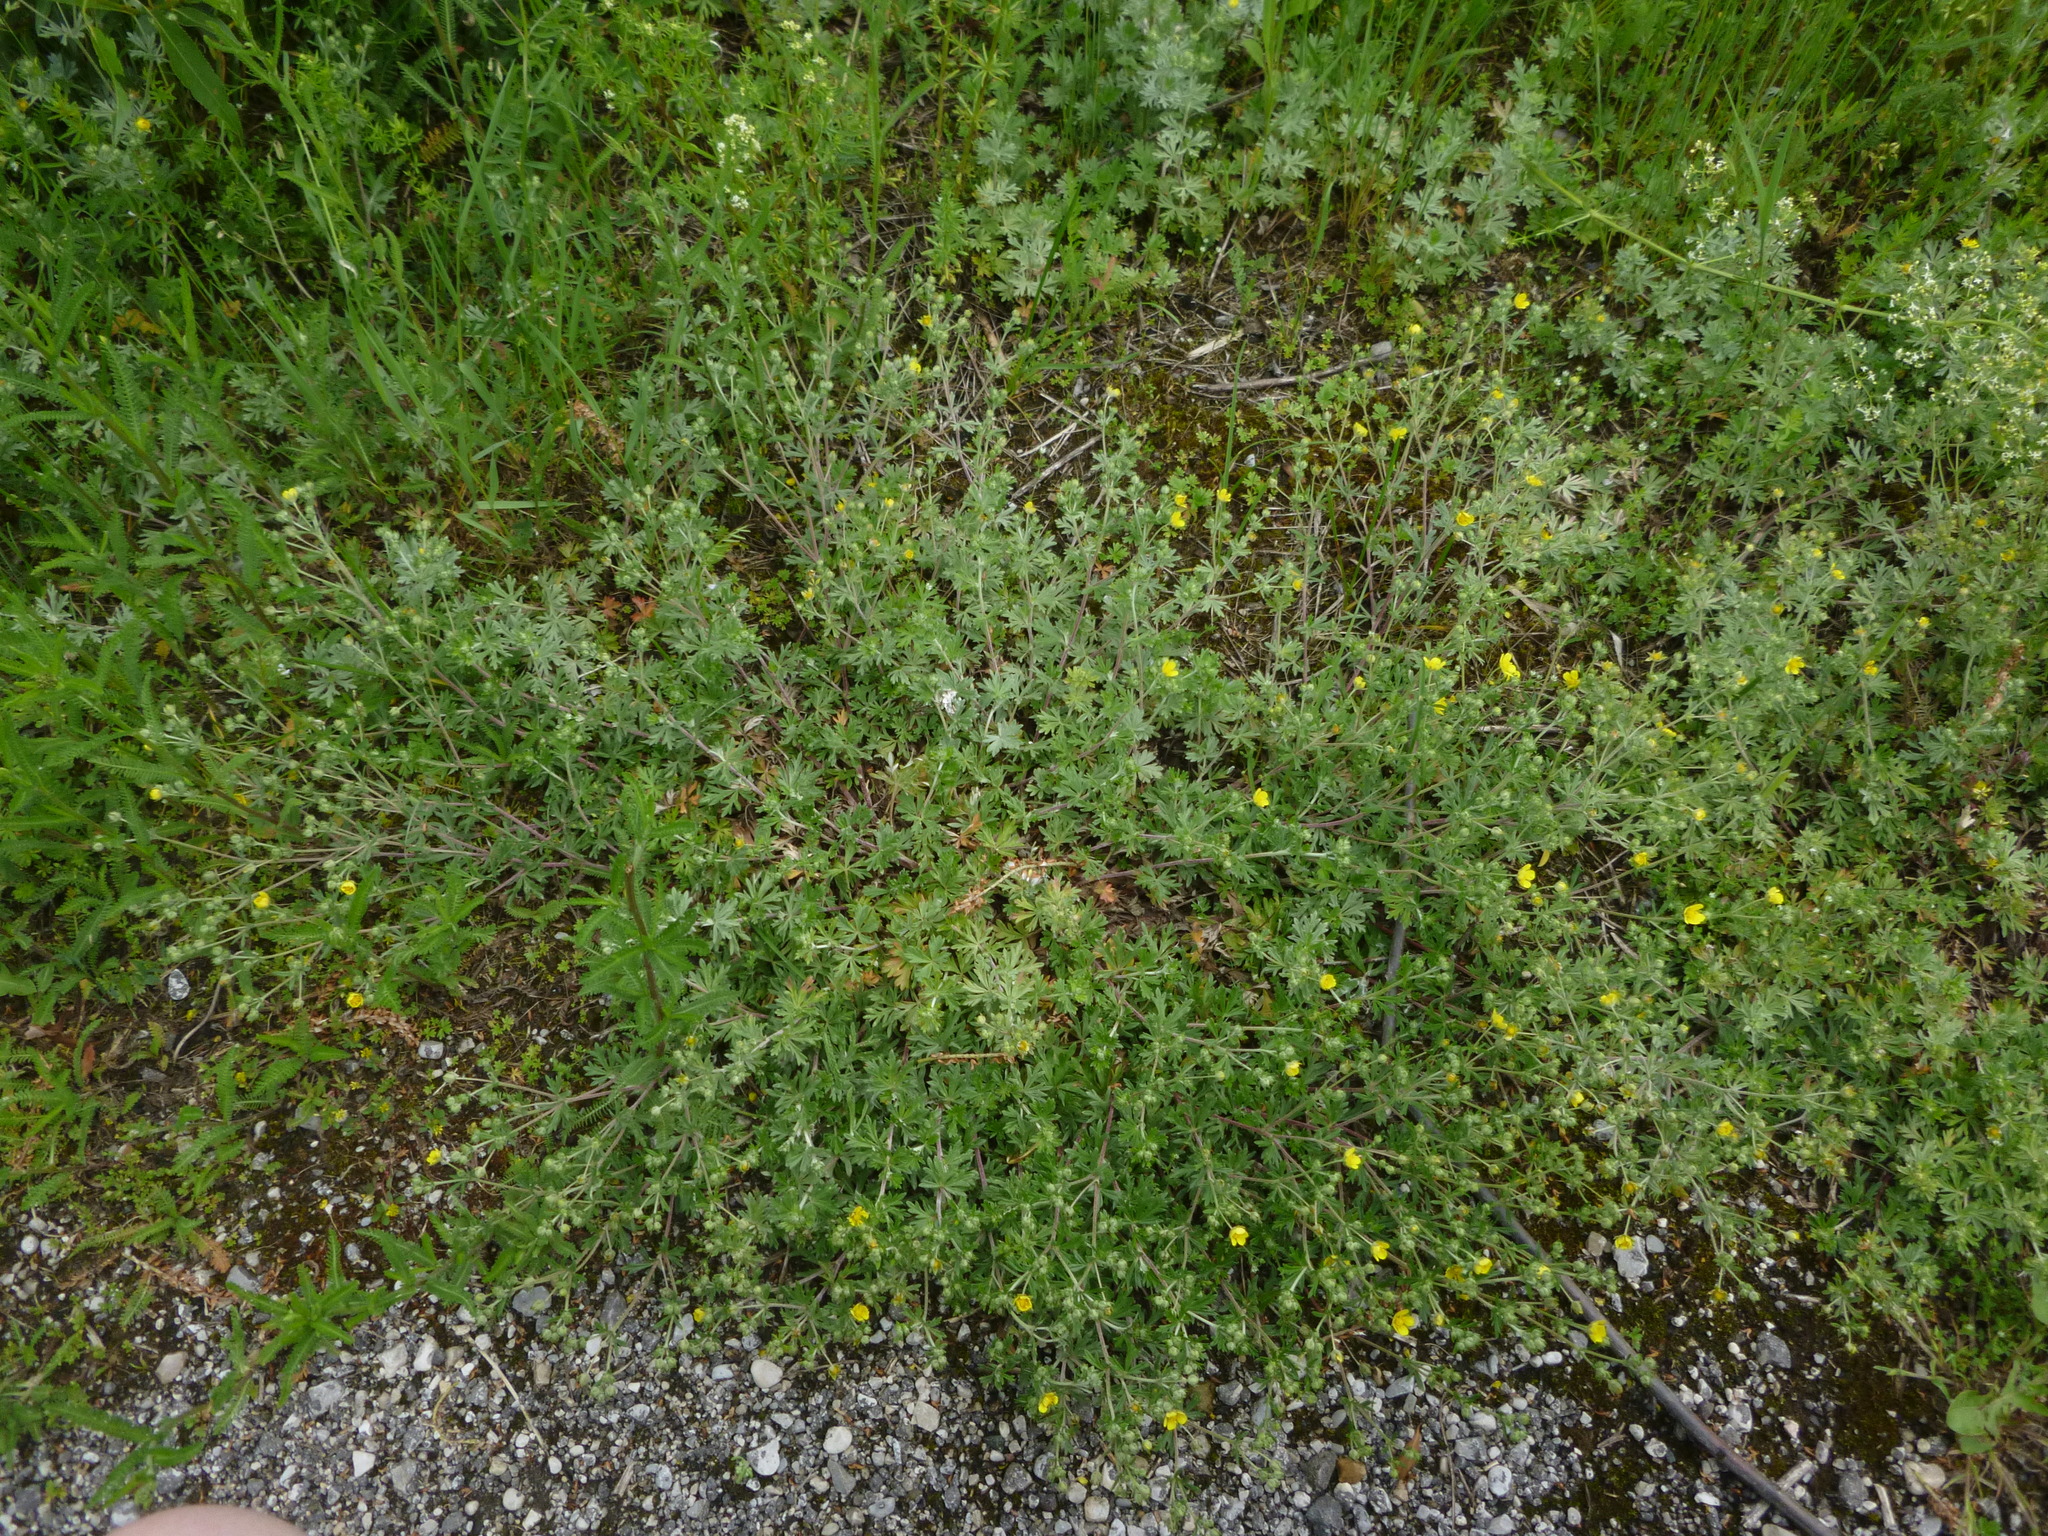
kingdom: Plantae
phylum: Tracheophyta
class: Magnoliopsida
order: Rosales
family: Rosaceae
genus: Potentilla
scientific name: Potentilla argentea
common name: Hoary cinquefoil
